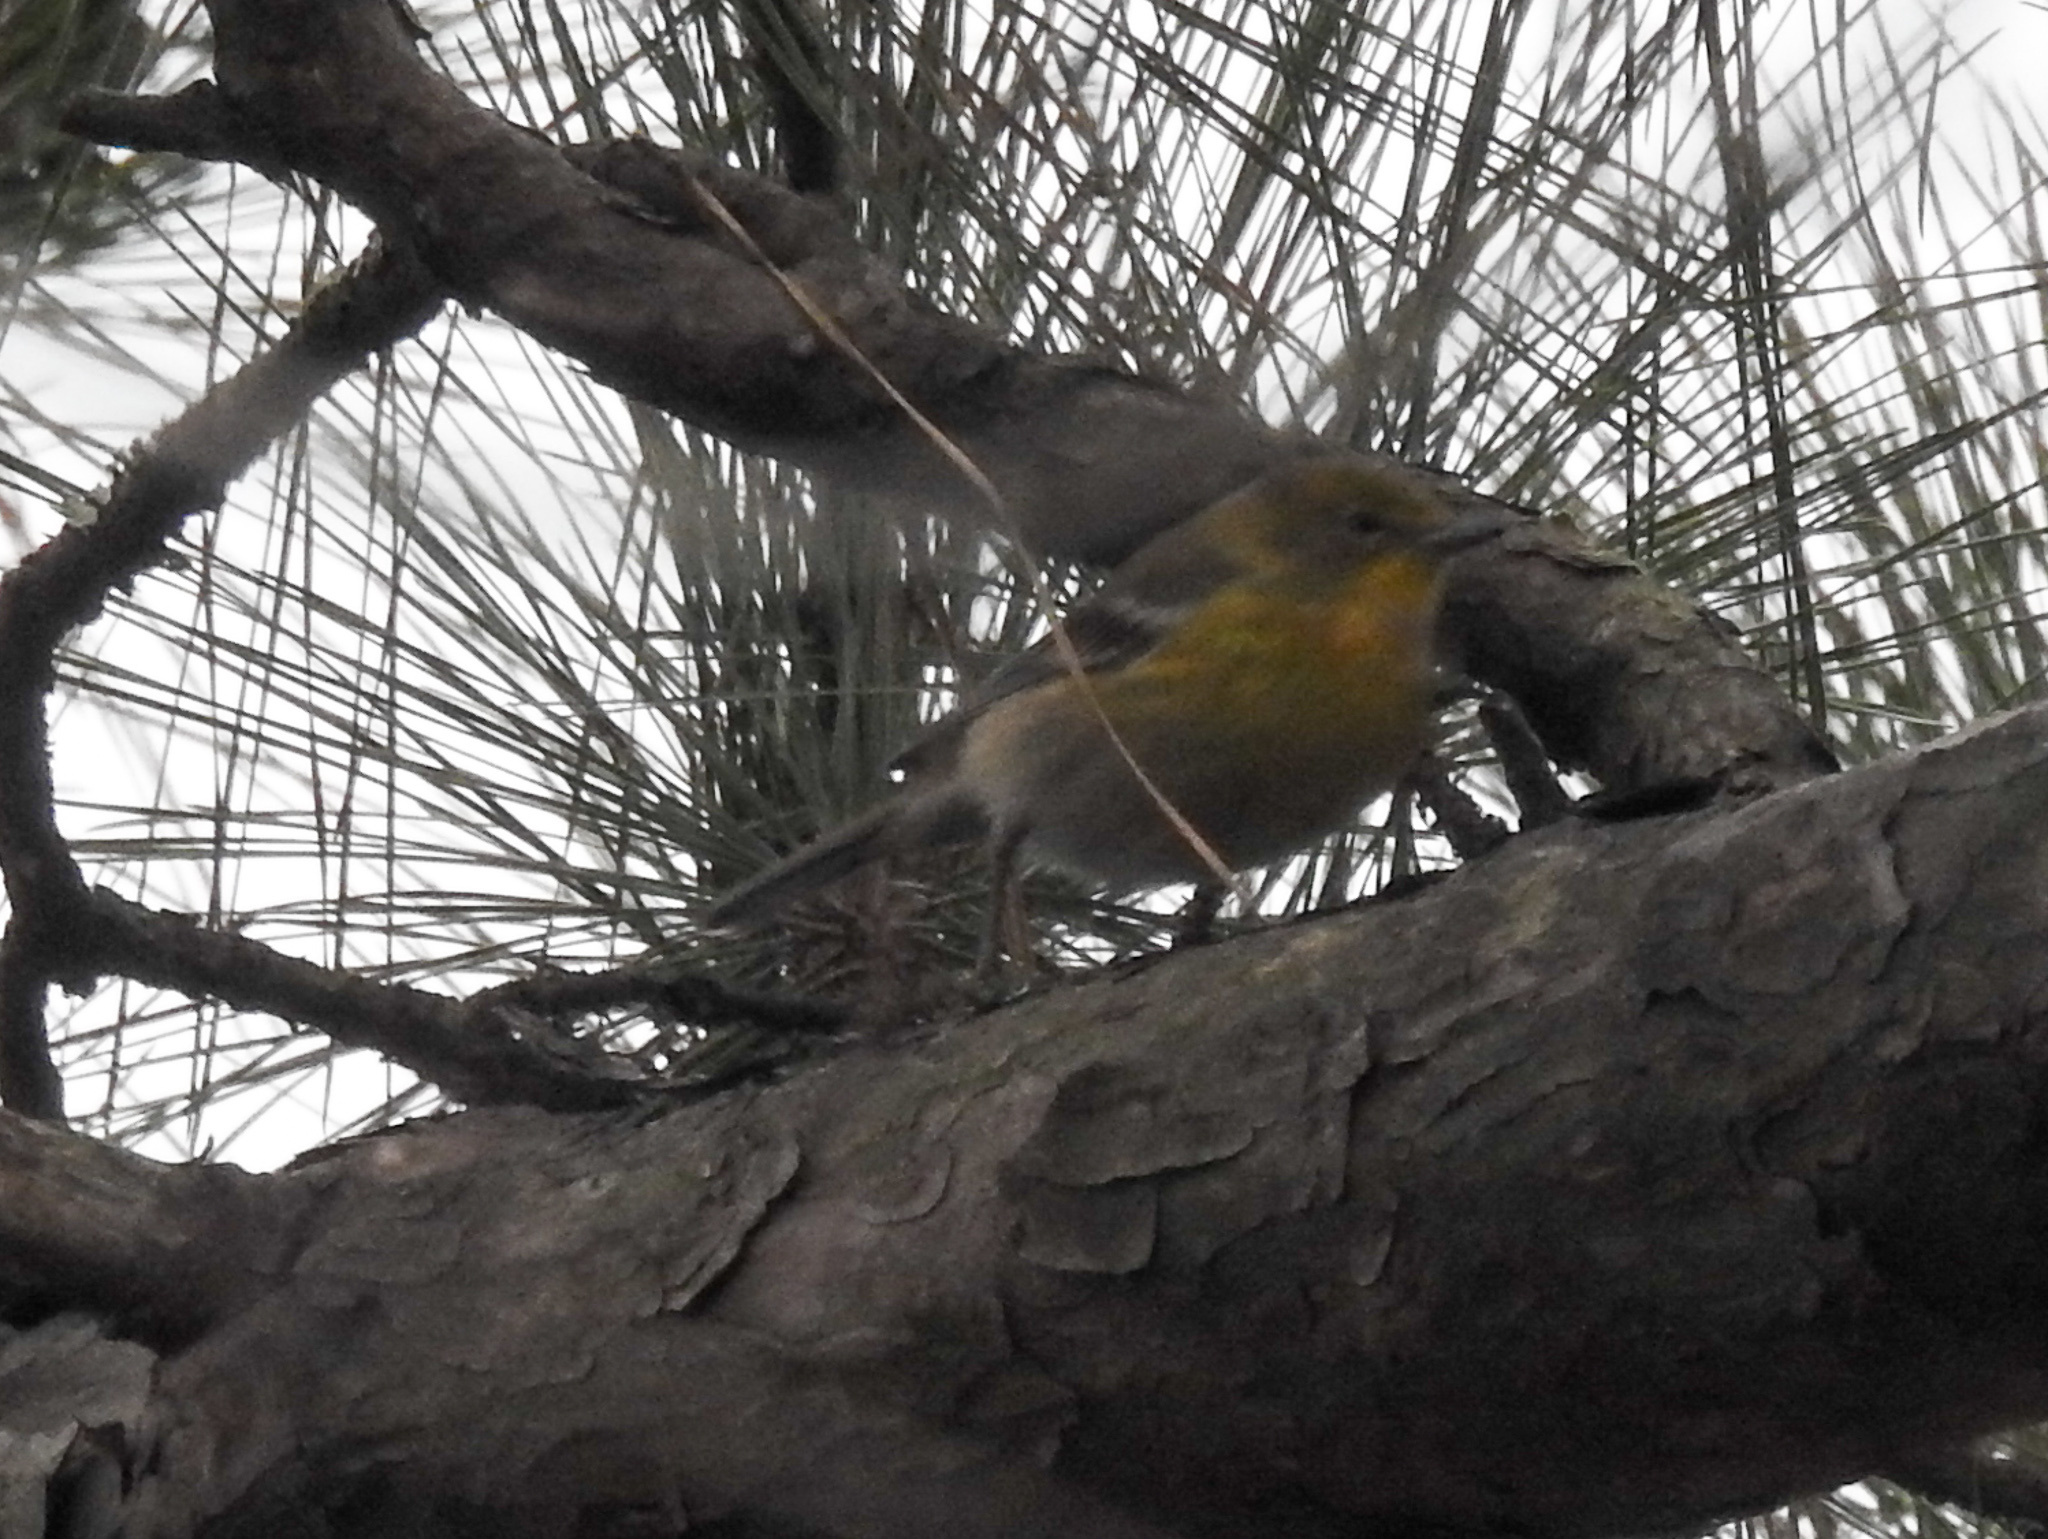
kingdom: Animalia
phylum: Chordata
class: Aves
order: Passeriformes
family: Parulidae
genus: Setophaga
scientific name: Setophaga pinus
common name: Pine warbler
